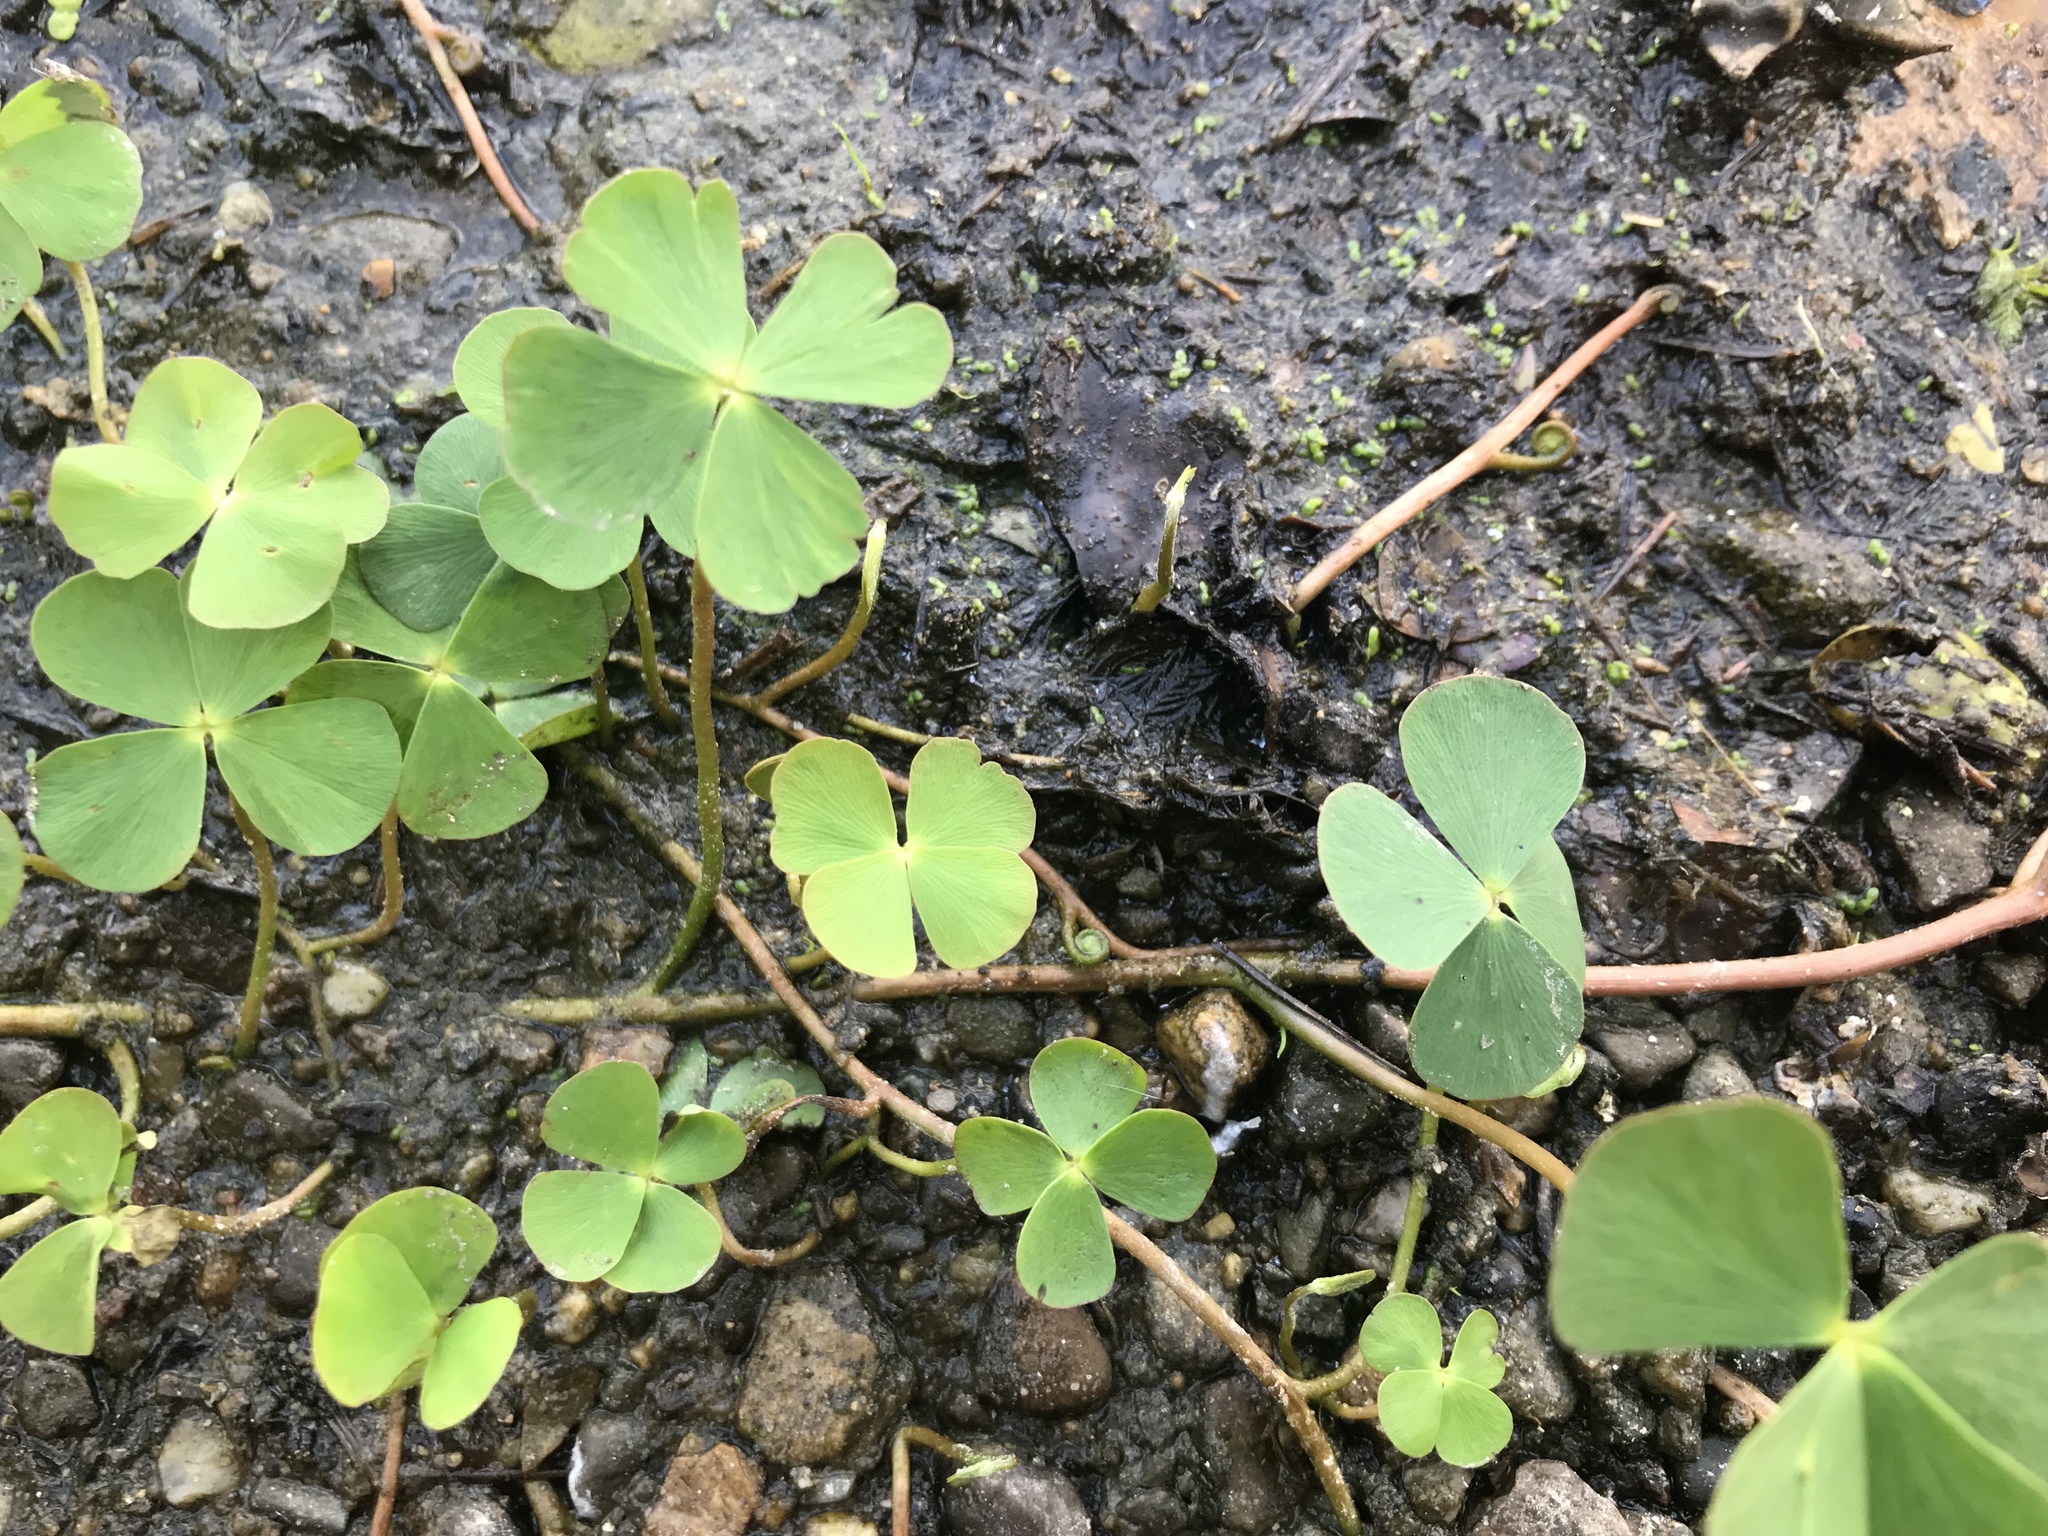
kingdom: Plantae
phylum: Tracheophyta
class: Polypodiopsida
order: Salviniales
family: Marsileaceae
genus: Marsilea
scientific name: Marsilea quadrifolia
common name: Water shamrock
